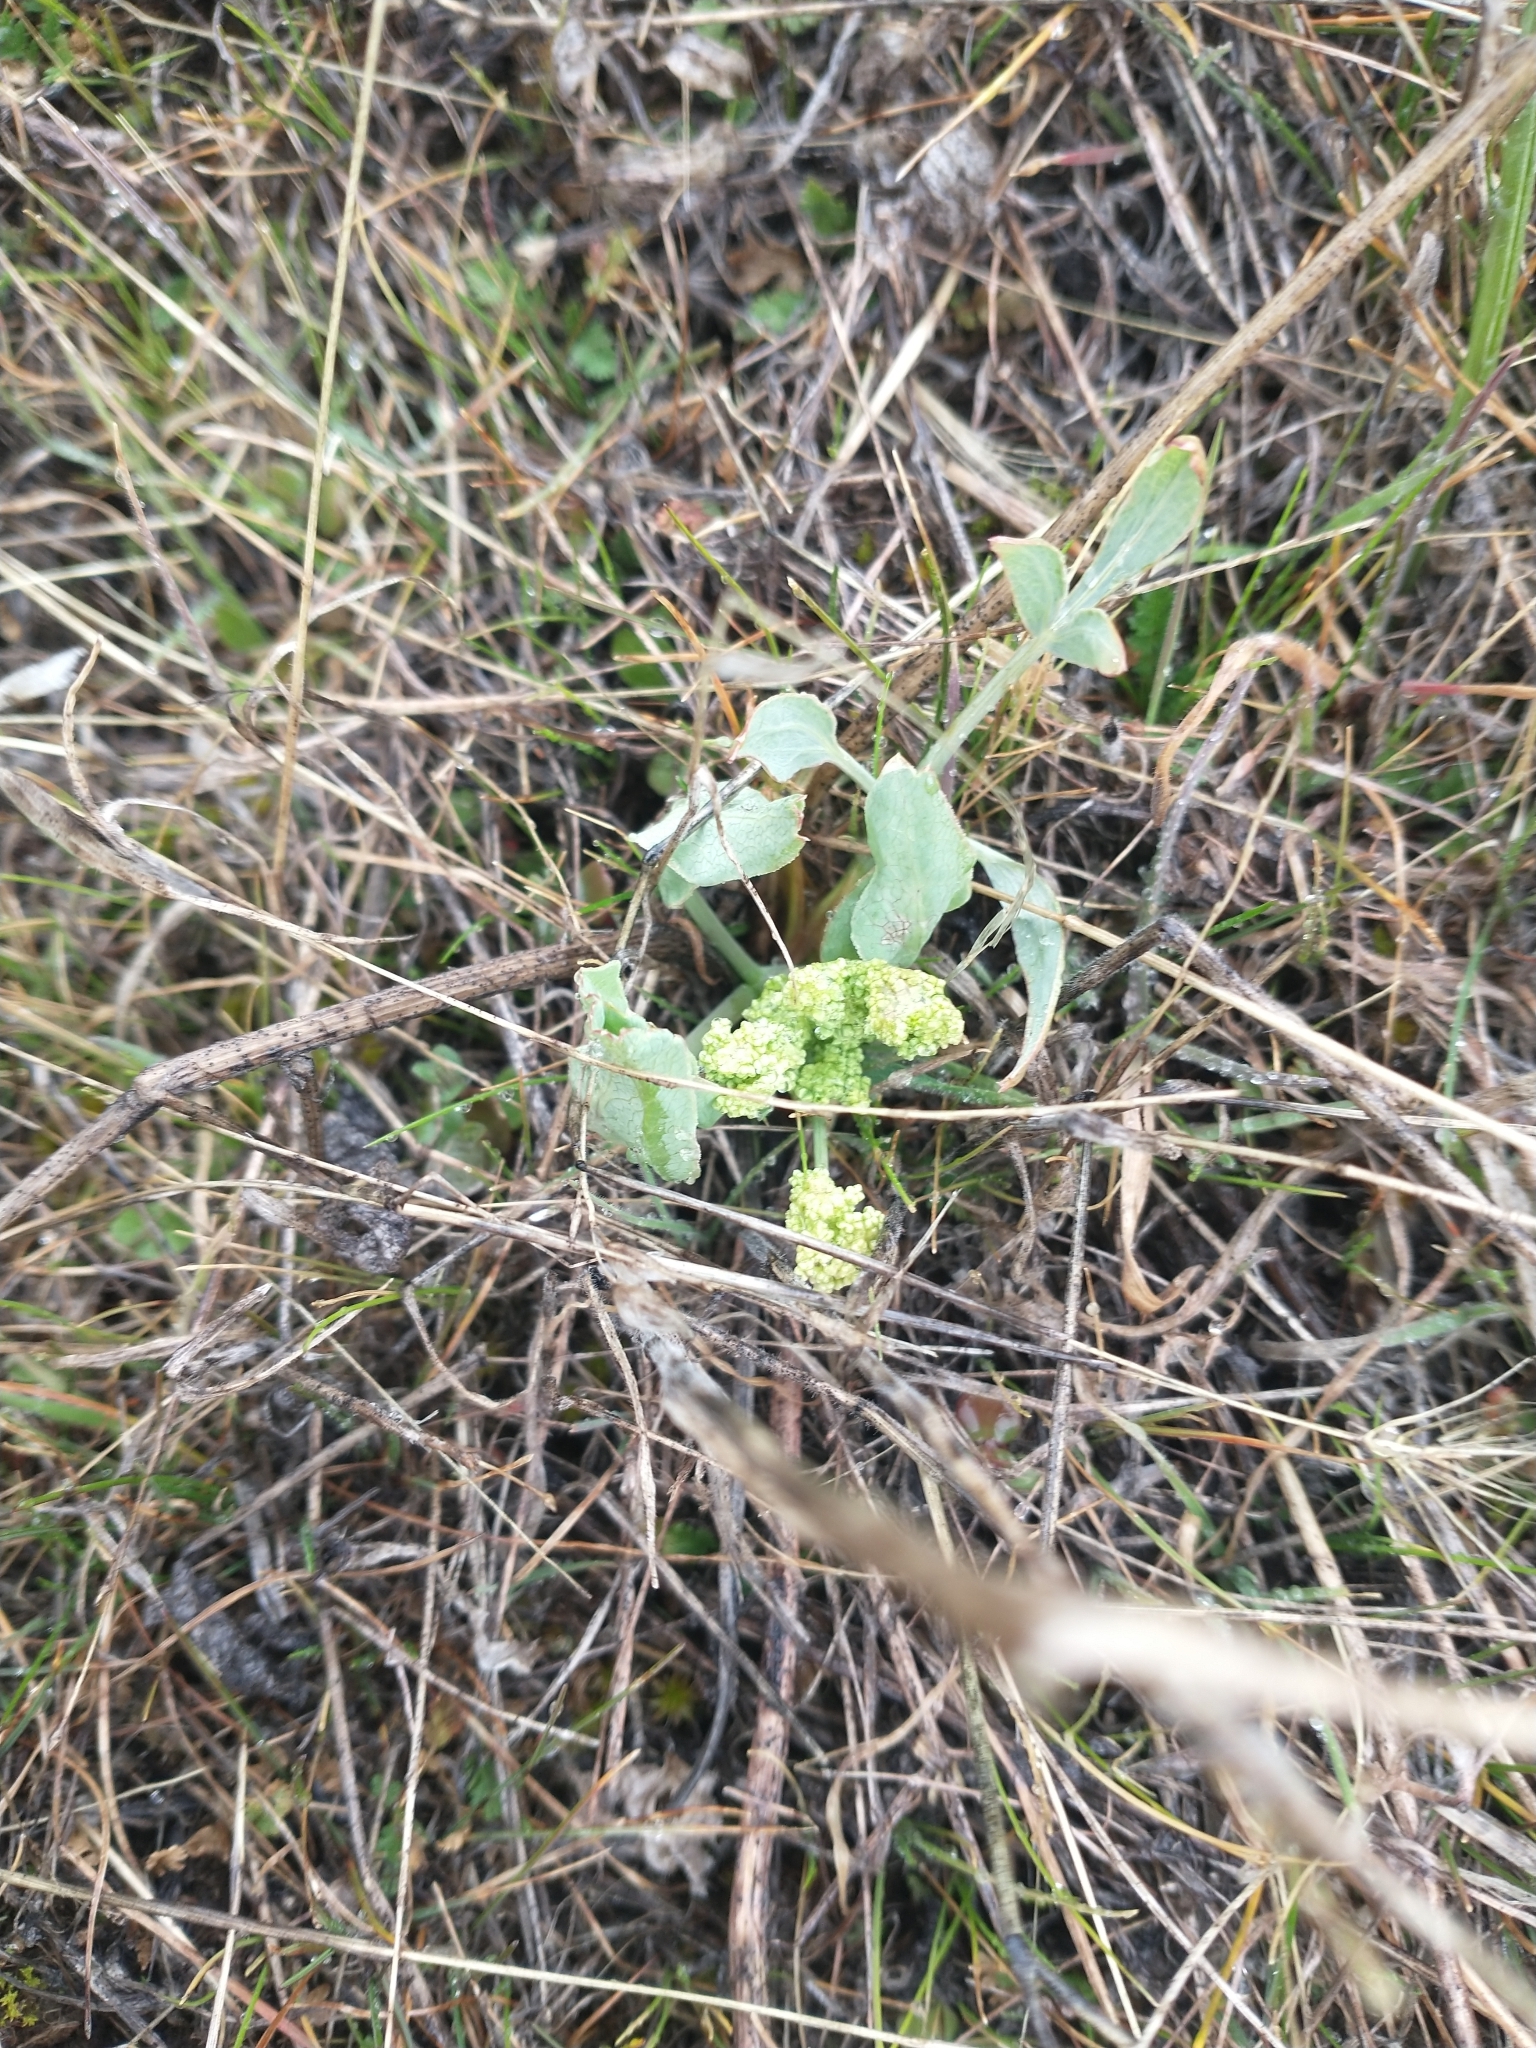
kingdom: Plantae
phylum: Tracheophyta
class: Magnoliopsida
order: Apiales
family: Apiaceae
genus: Lomatium
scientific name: Lomatium nudicaule
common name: Pestle lomatium
